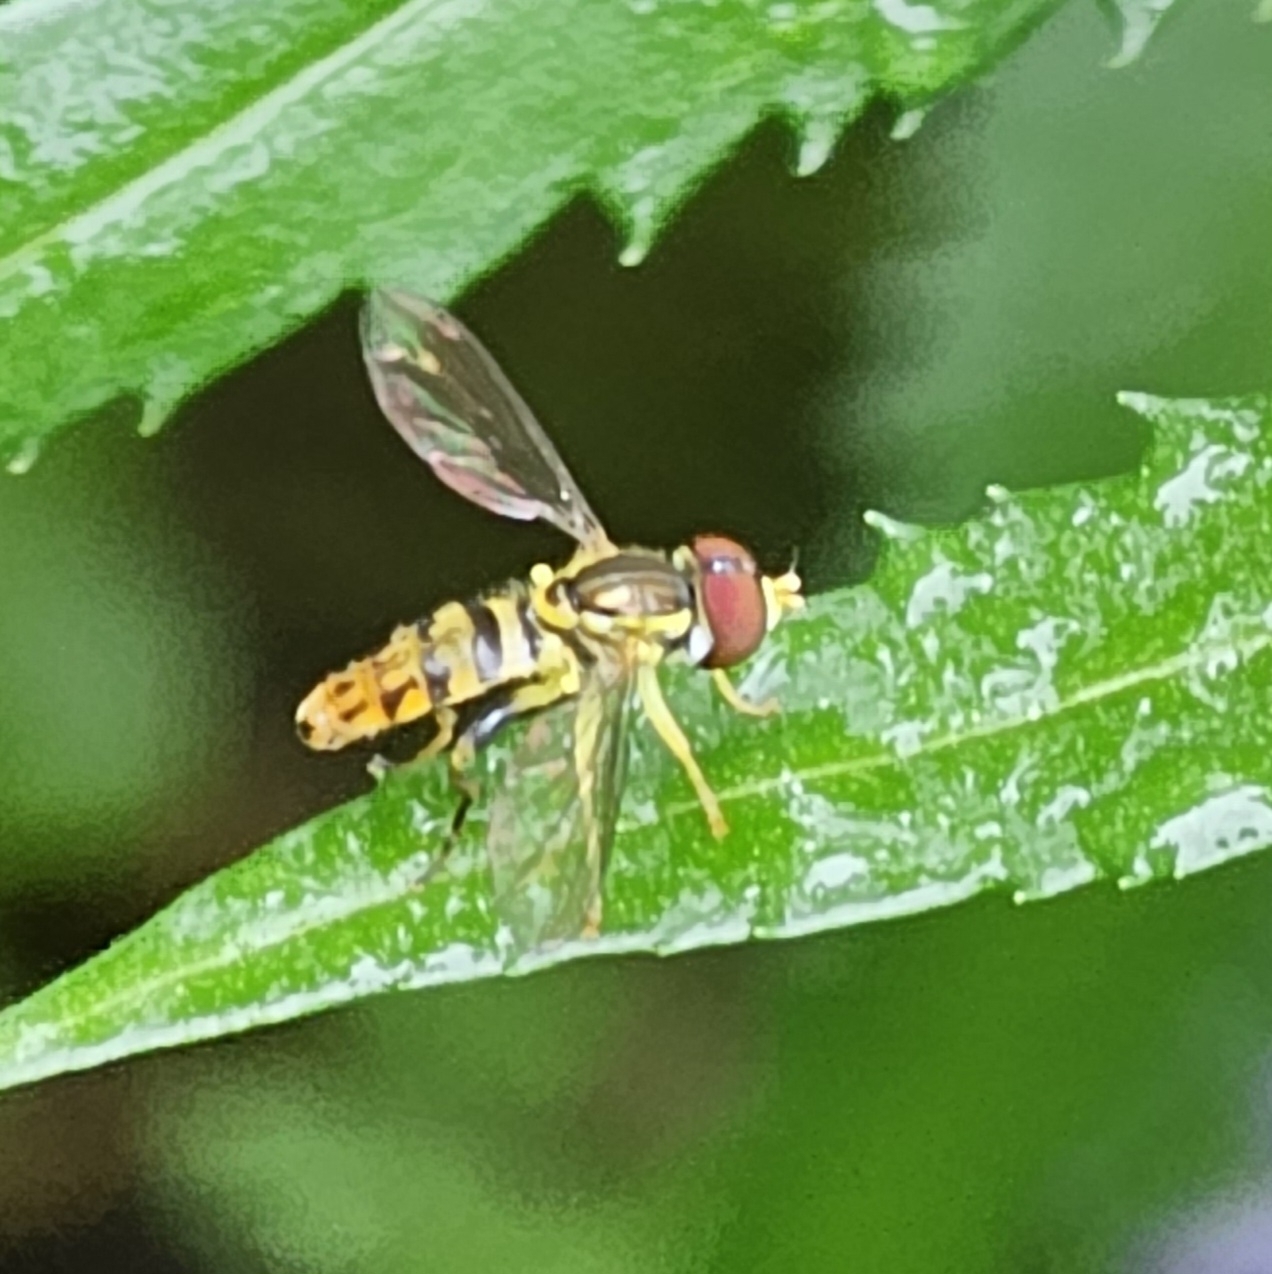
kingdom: Animalia
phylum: Arthropoda
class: Insecta
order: Diptera
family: Syrphidae
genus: Toxomerus
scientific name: Toxomerus geminatus
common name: Eastern calligrapher
